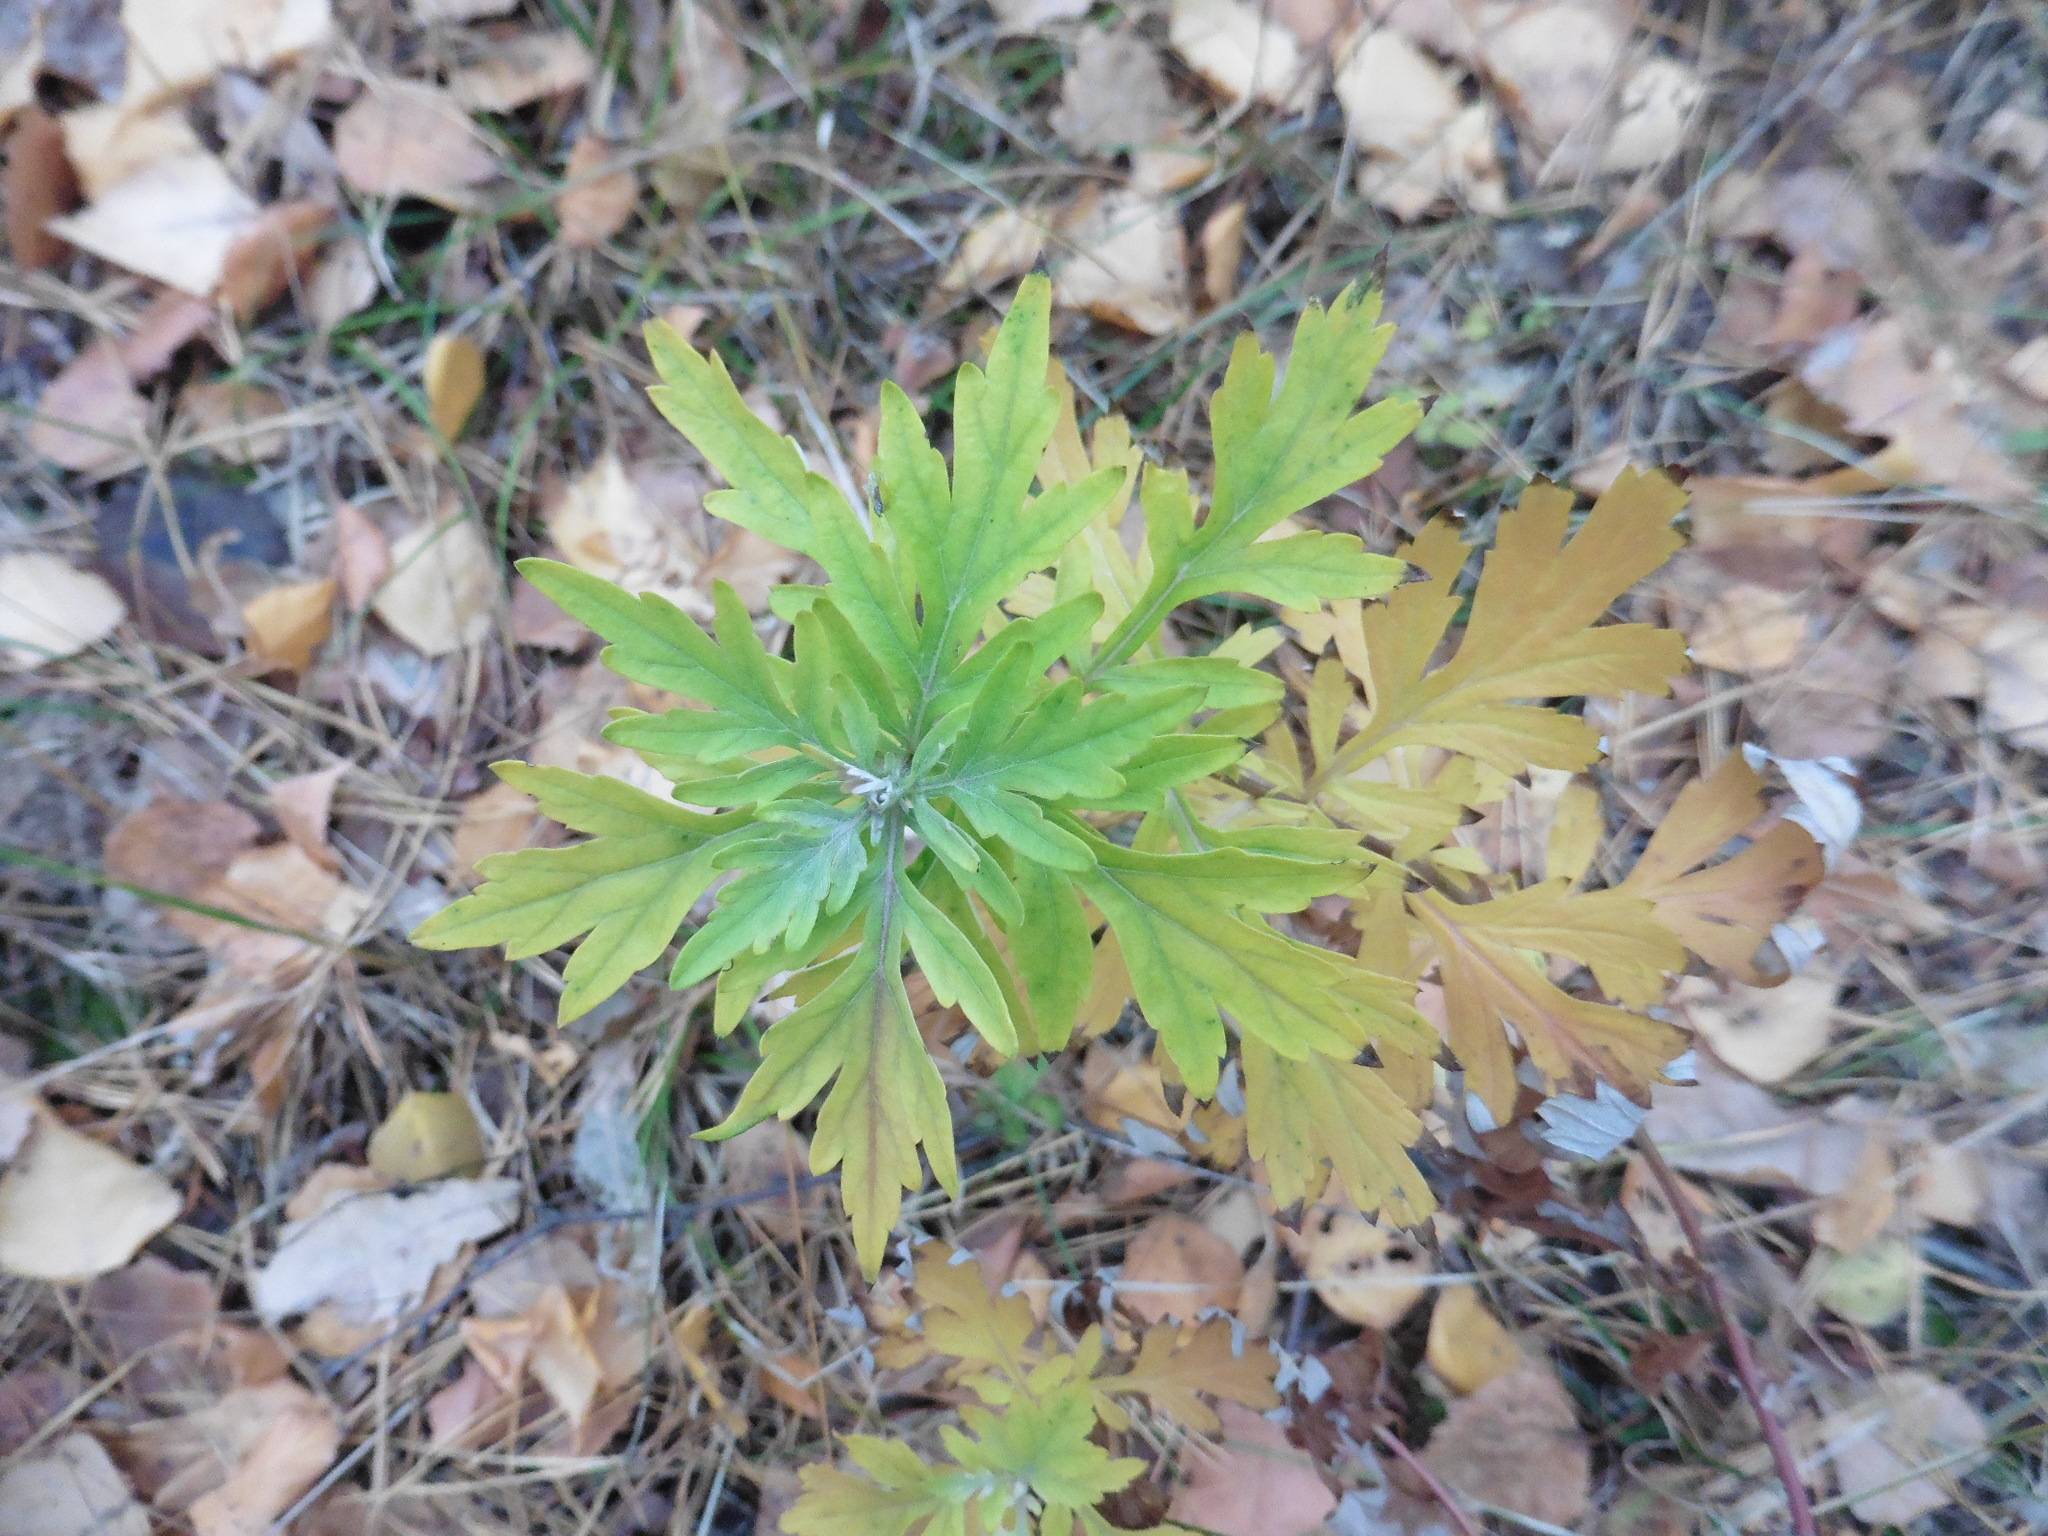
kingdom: Plantae
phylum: Tracheophyta
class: Magnoliopsida
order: Asterales
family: Asteraceae
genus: Artemisia
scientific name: Artemisia vulgaris
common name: Mugwort
